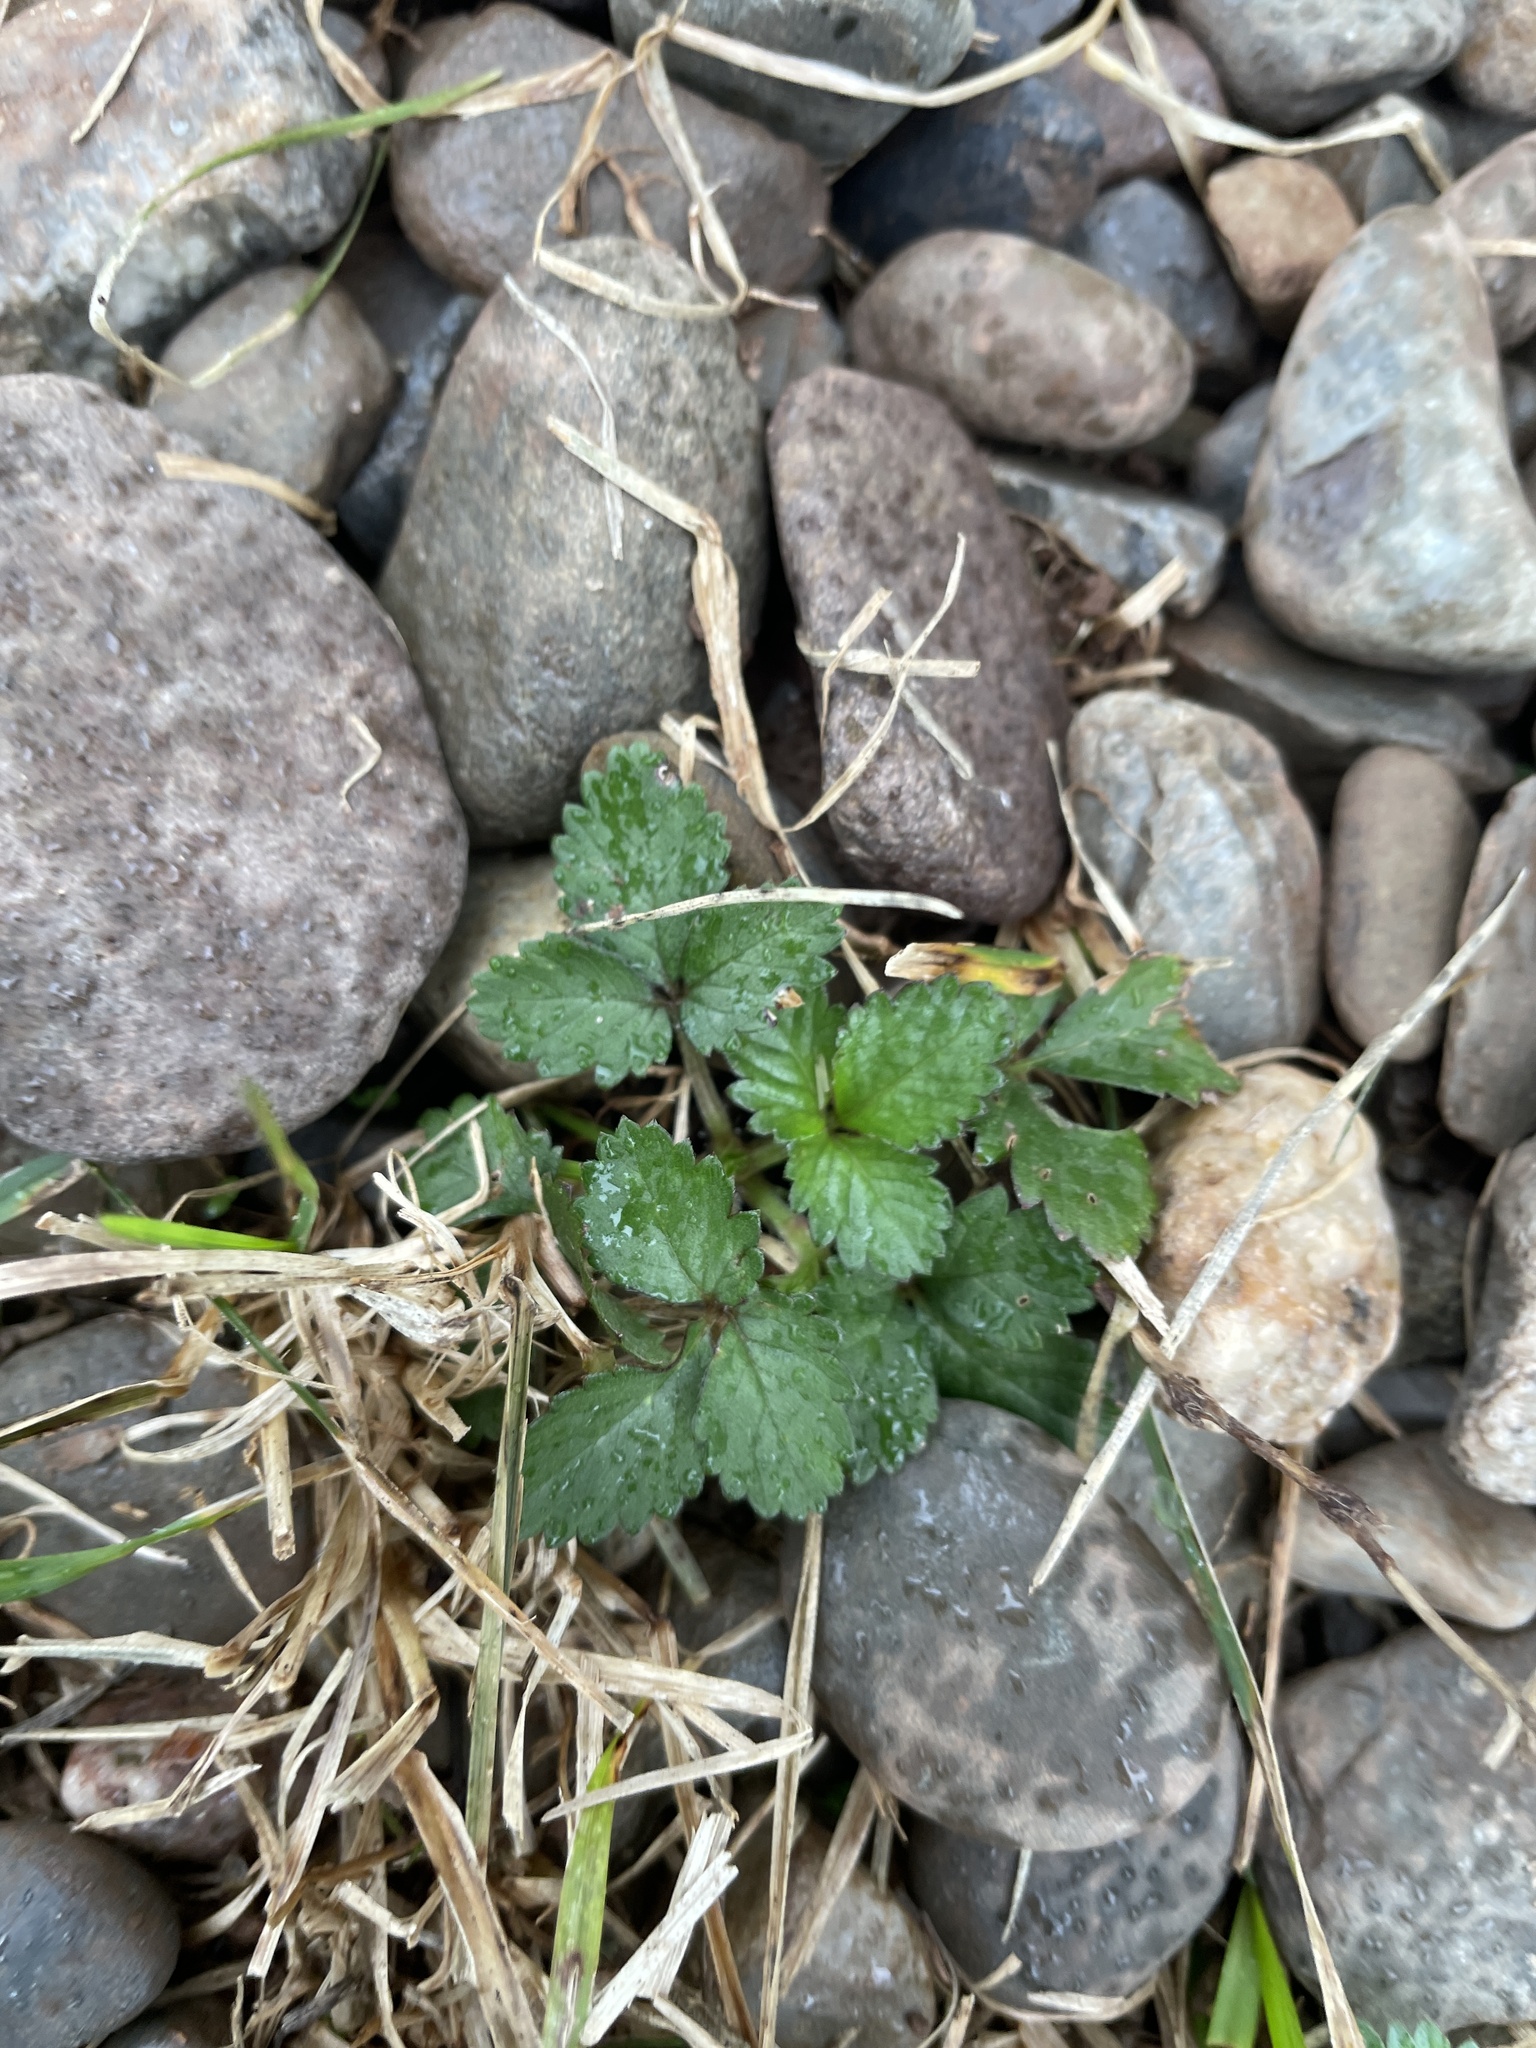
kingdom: Plantae
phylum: Tracheophyta
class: Magnoliopsida
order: Rosales
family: Rosaceae
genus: Potentilla
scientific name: Potentilla indica
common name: Yellow-flowered strawberry
